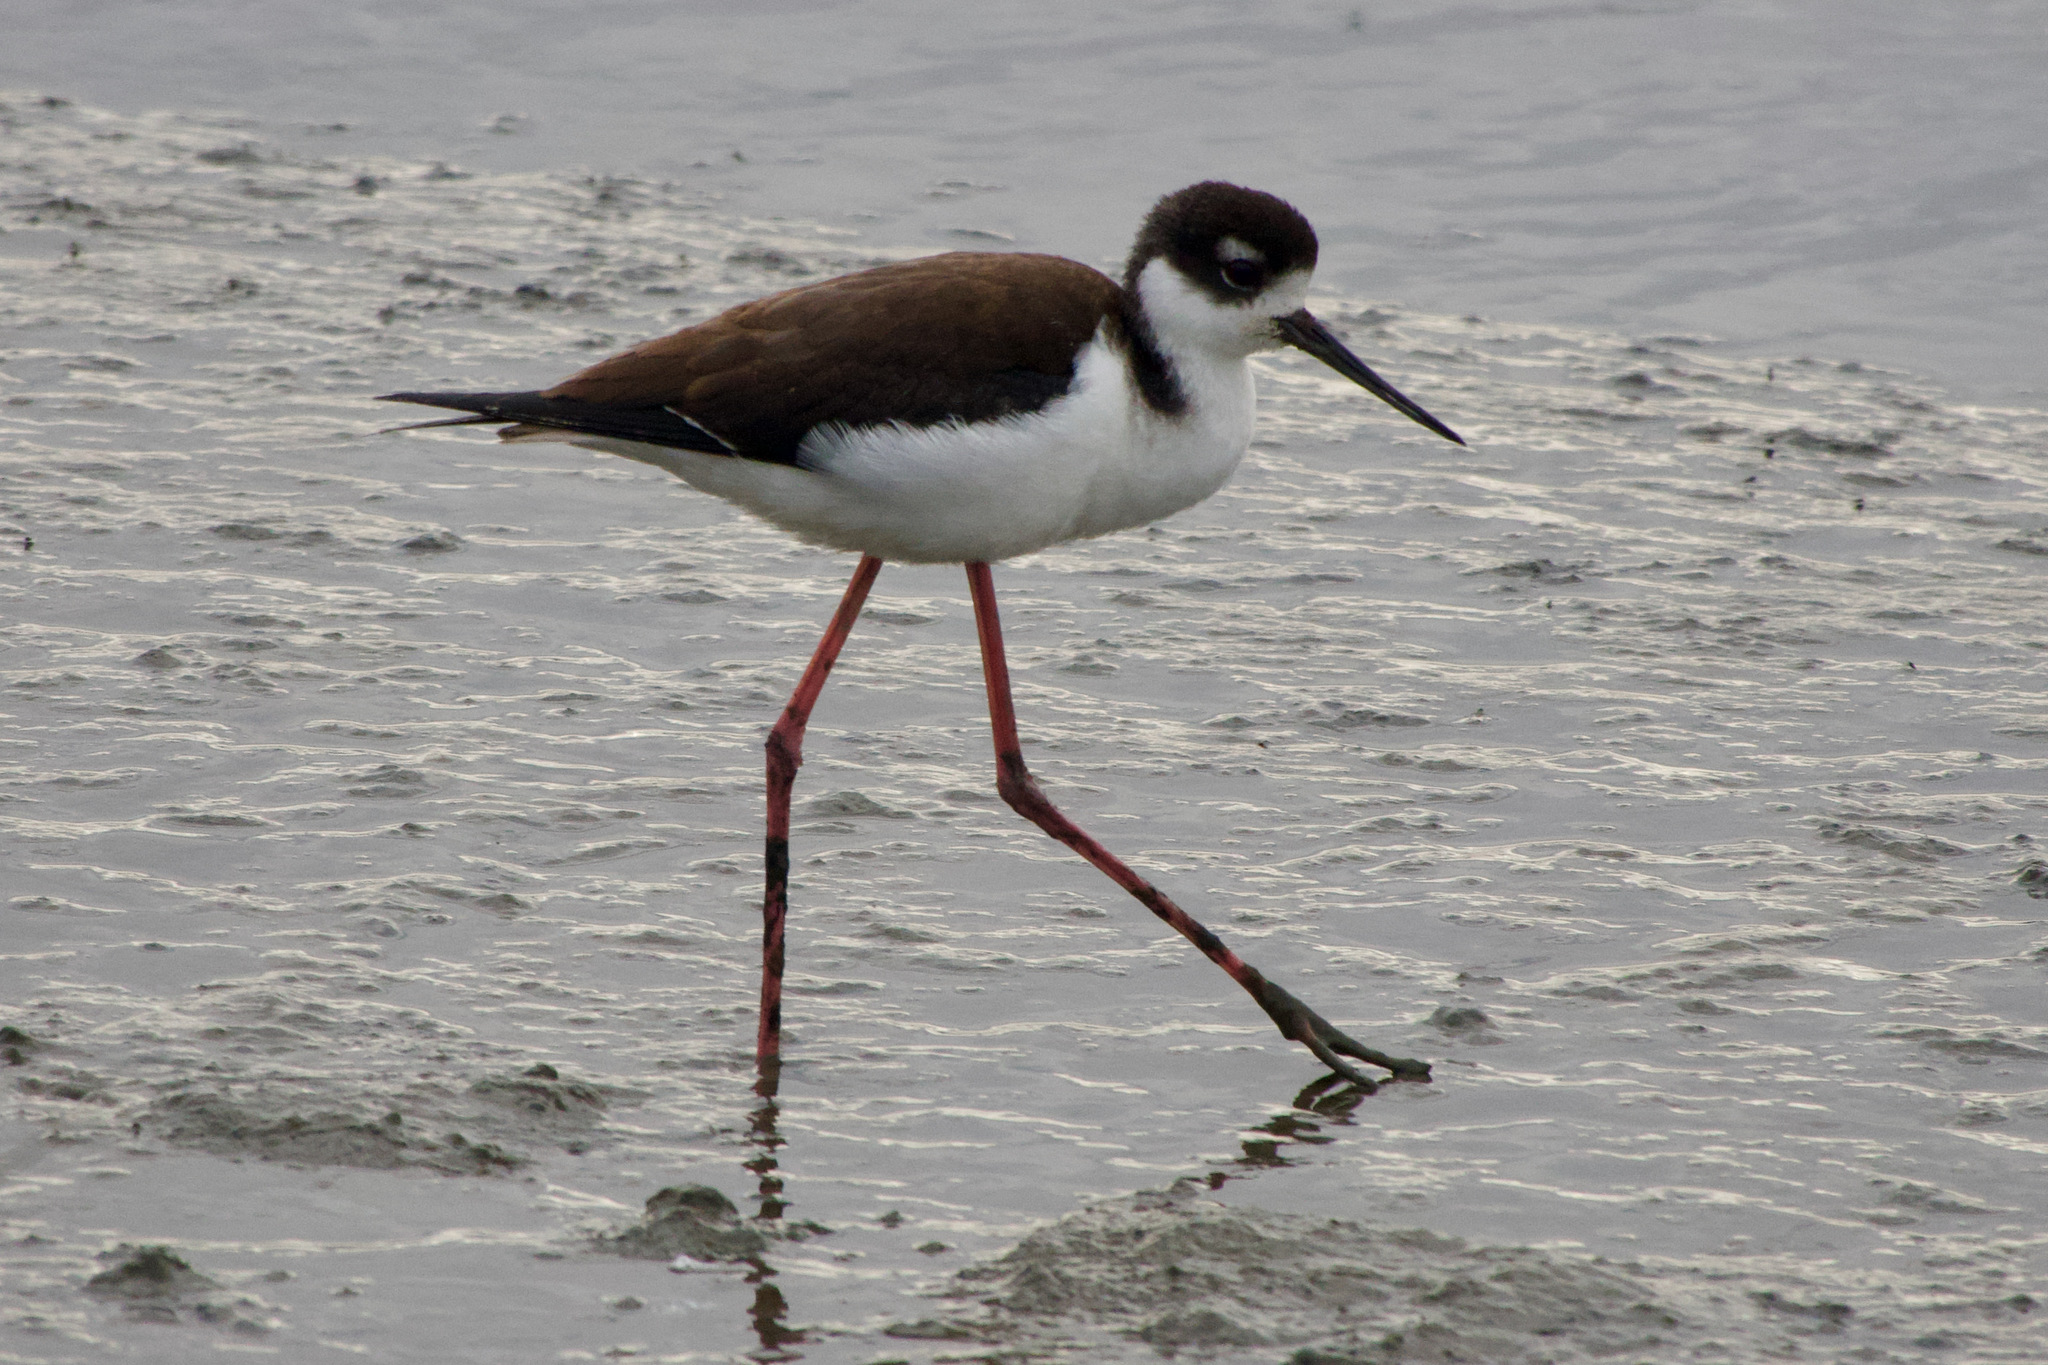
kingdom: Animalia
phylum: Chordata
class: Aves
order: Charadriiformes
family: Recurvirostridae
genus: Himantopus
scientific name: Himantopus mexicanus
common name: Black-necked stilt
